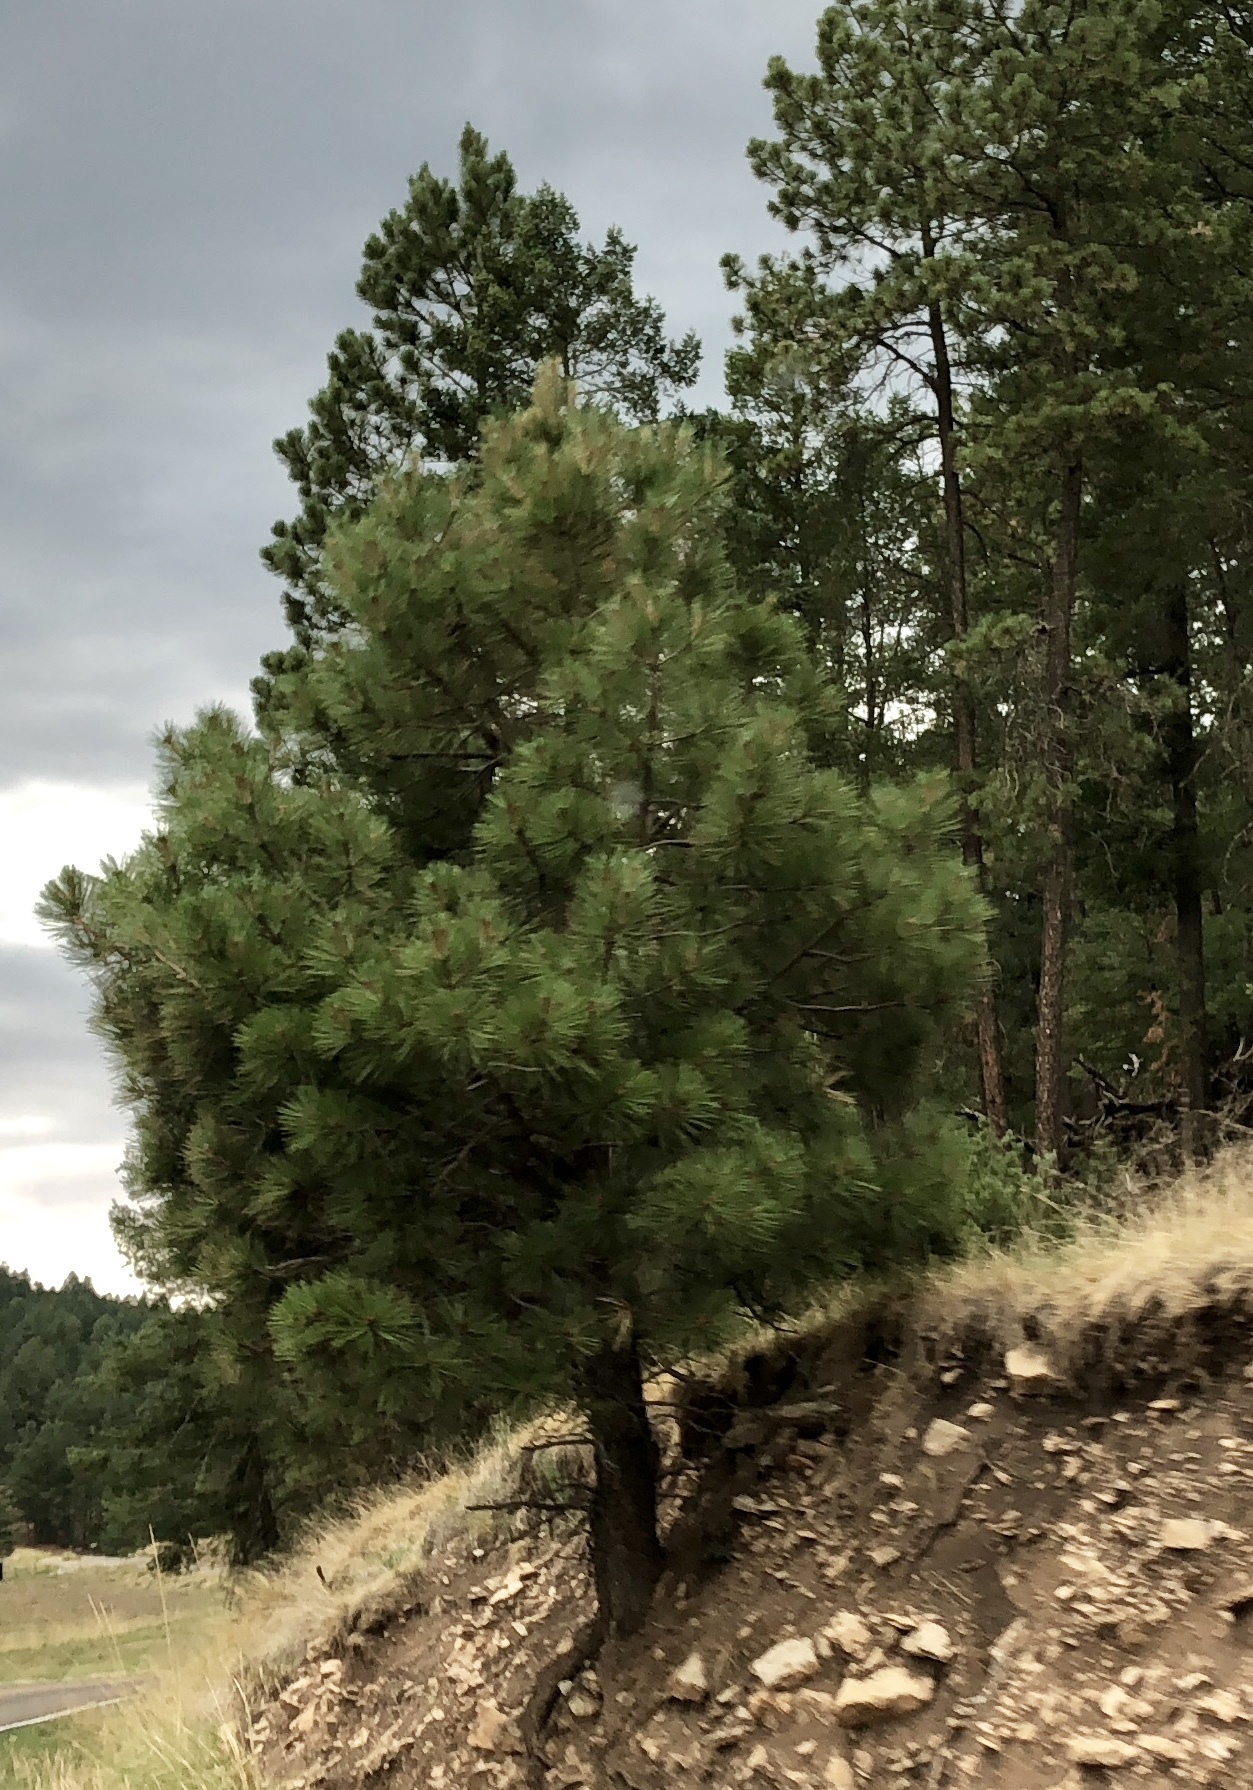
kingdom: Plantae
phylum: Tracheophyta
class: Pinopsida
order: Pinales
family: Pinaceae
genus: Pinus
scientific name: Pinus ponderosa
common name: Western yellow-pine
